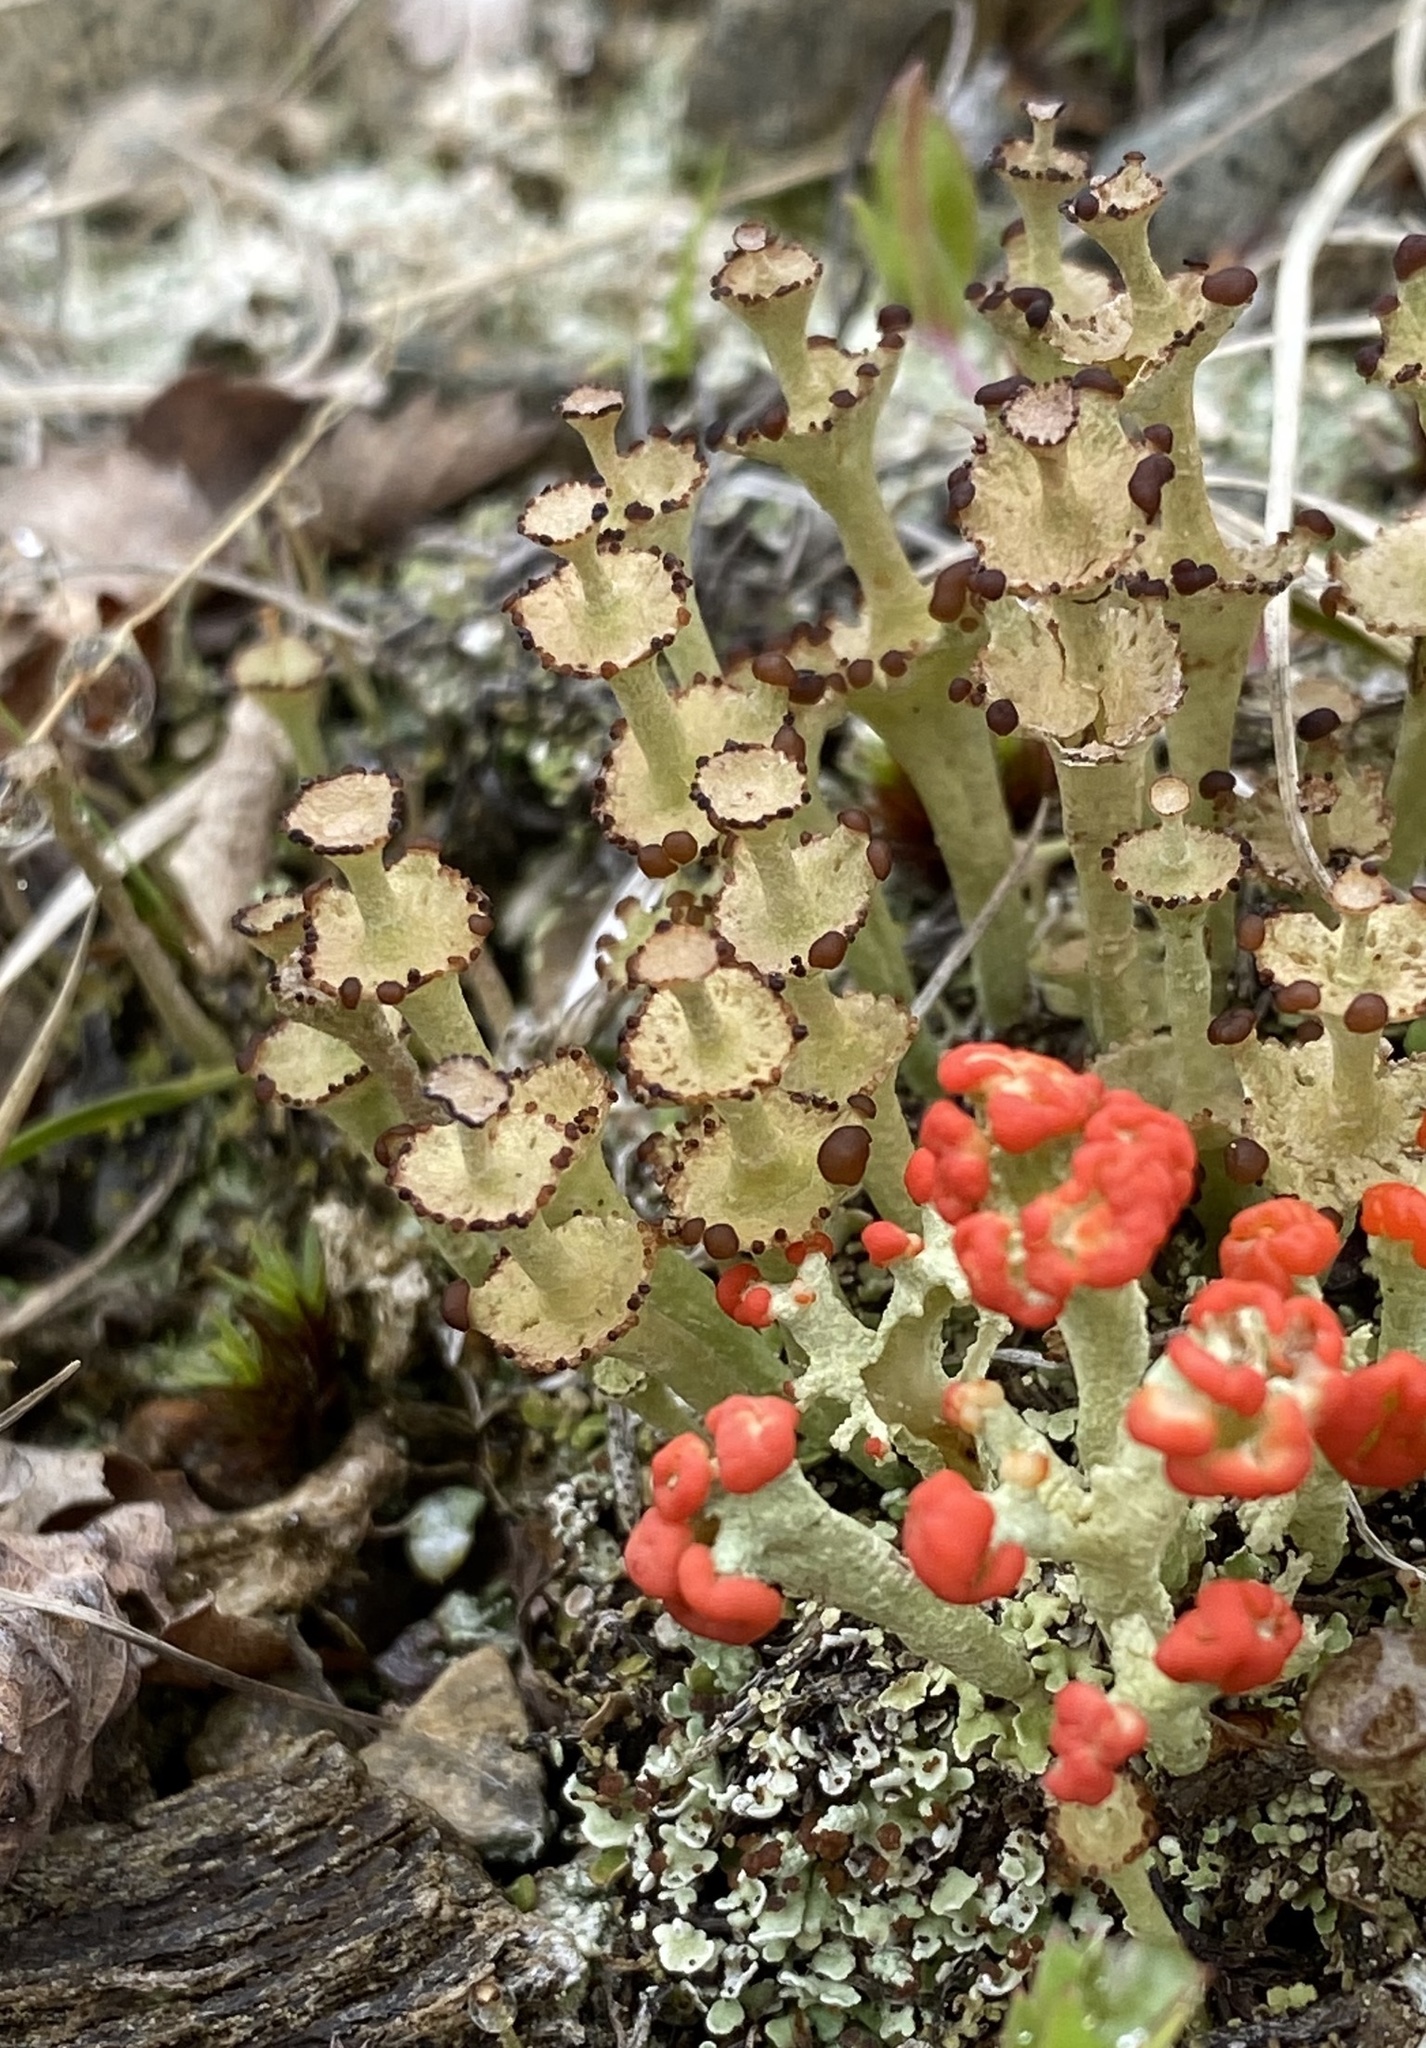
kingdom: Fungi
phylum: Ascomycota
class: Lecanoromycetes
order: Lecanorales
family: Cladoniaceae
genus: Cladonia
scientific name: Cladonia cervicornis
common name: Browned pixie-cup lichen
